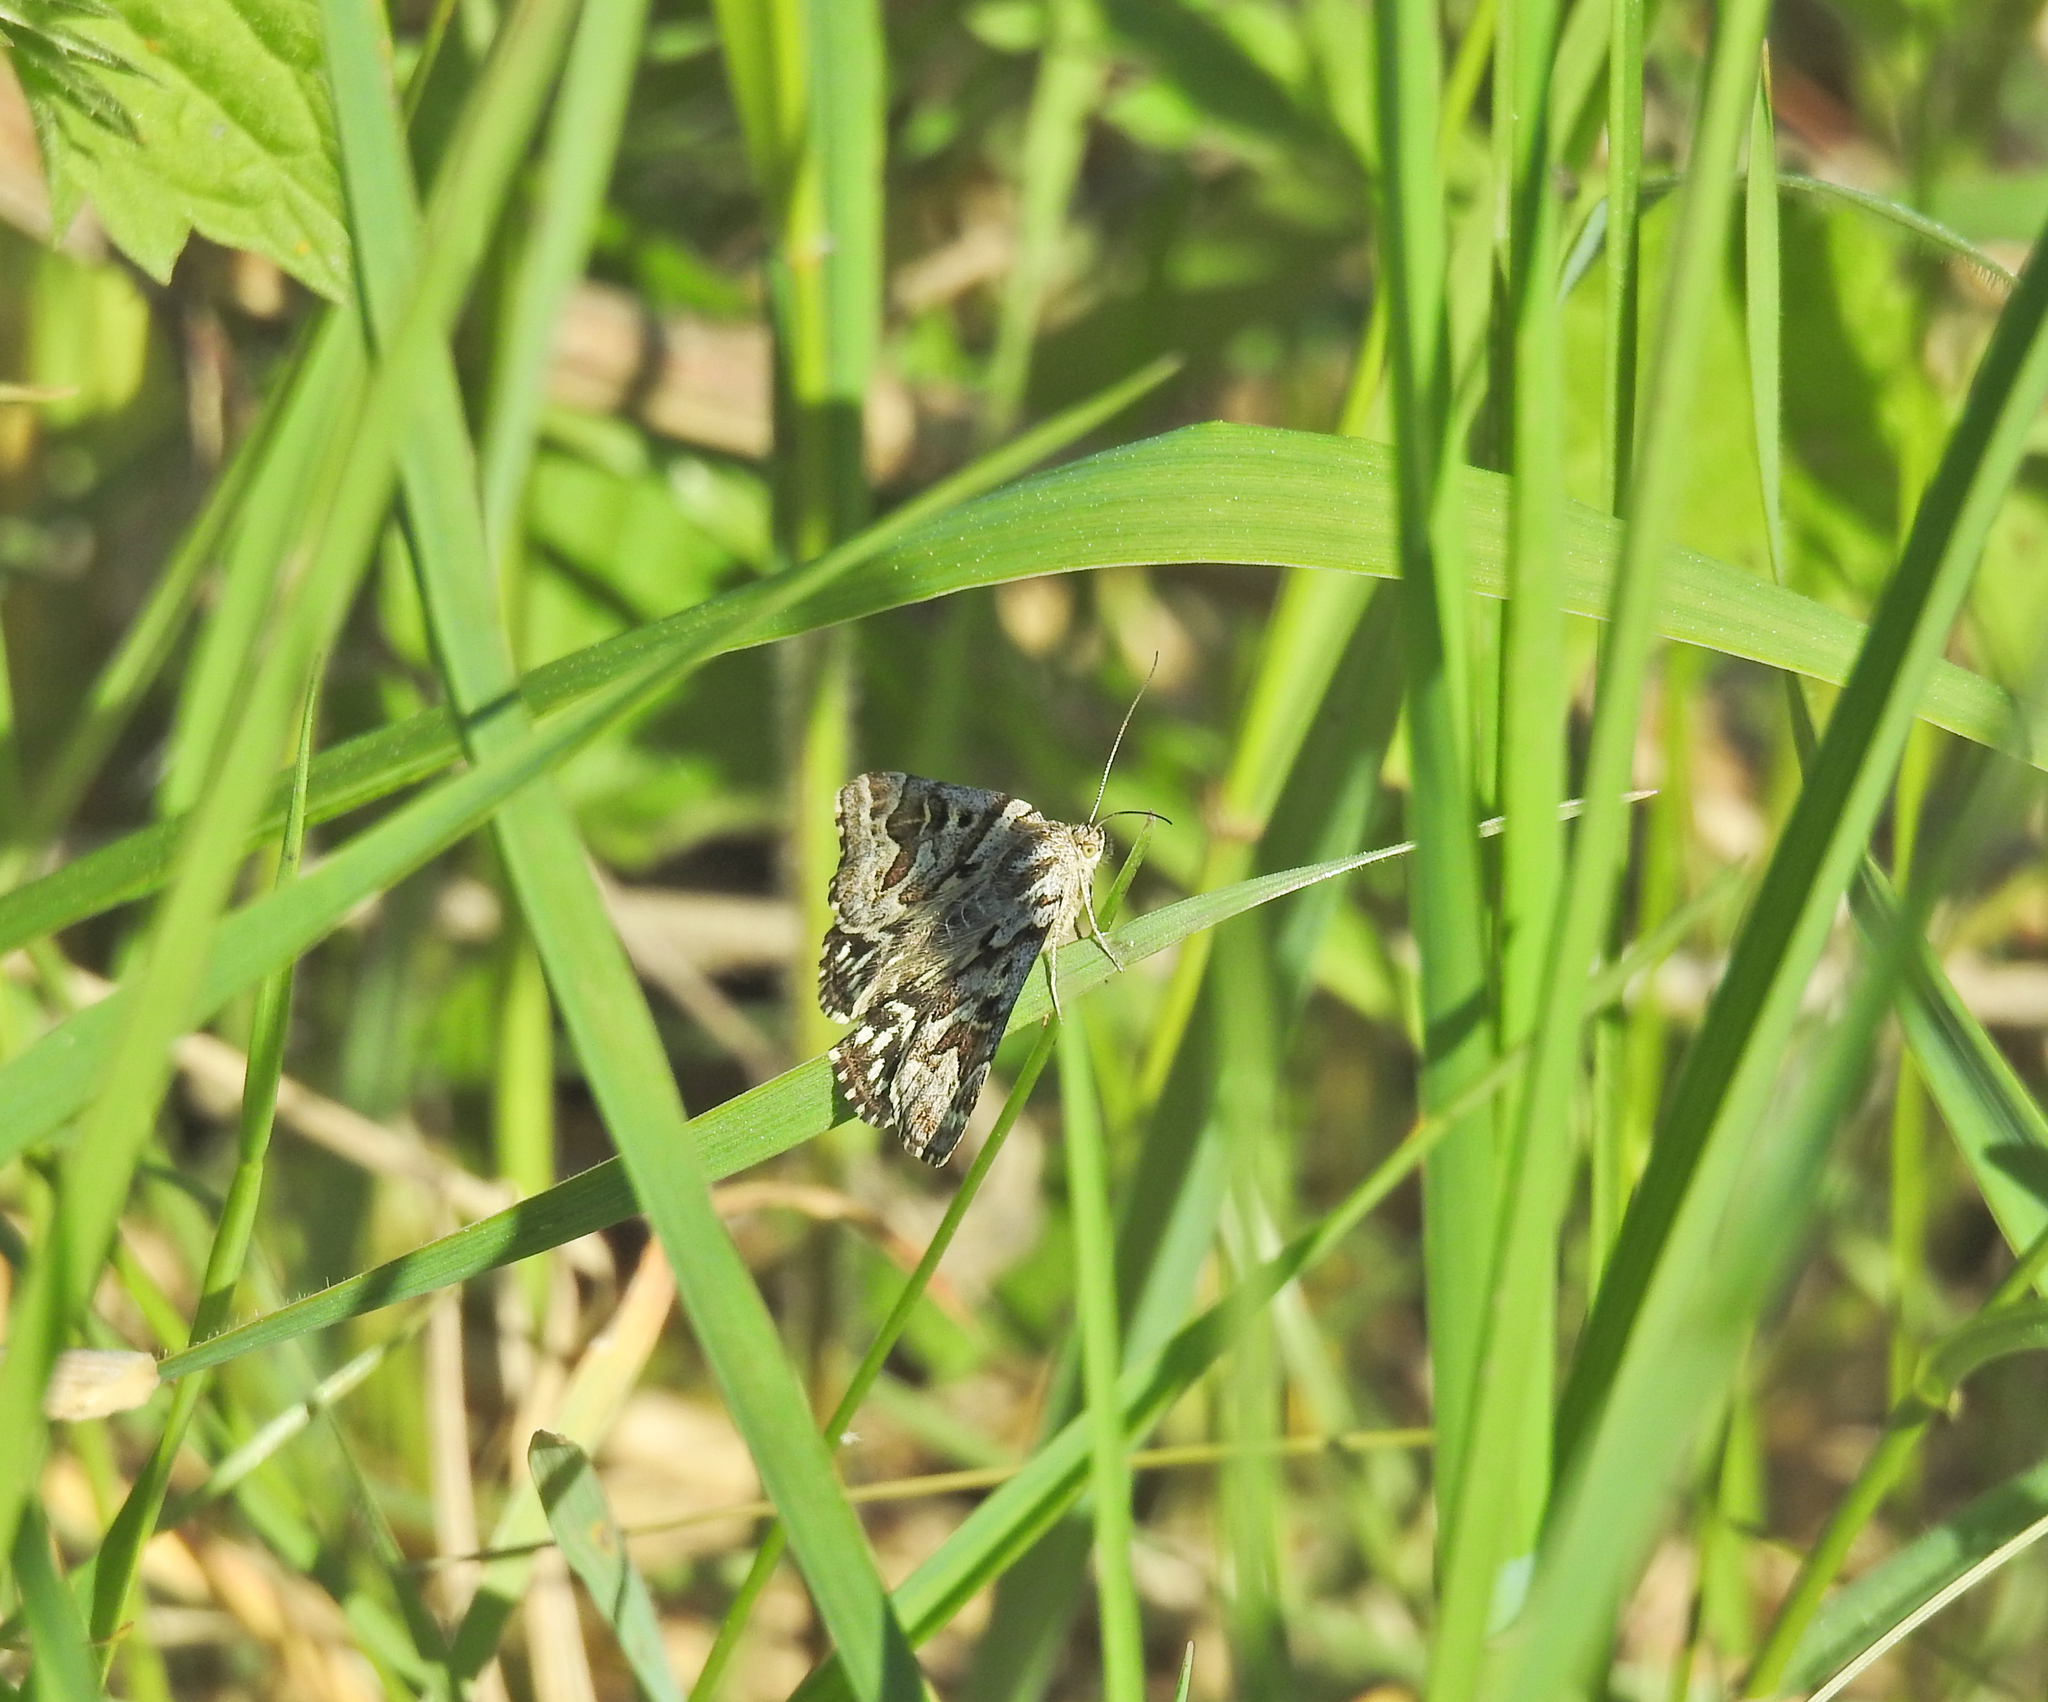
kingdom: Animalia
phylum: Arthropoda
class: Insecta
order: Lepidoptera
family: Erebidae
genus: Callistege
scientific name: Callistege mi
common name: Mother shipton
